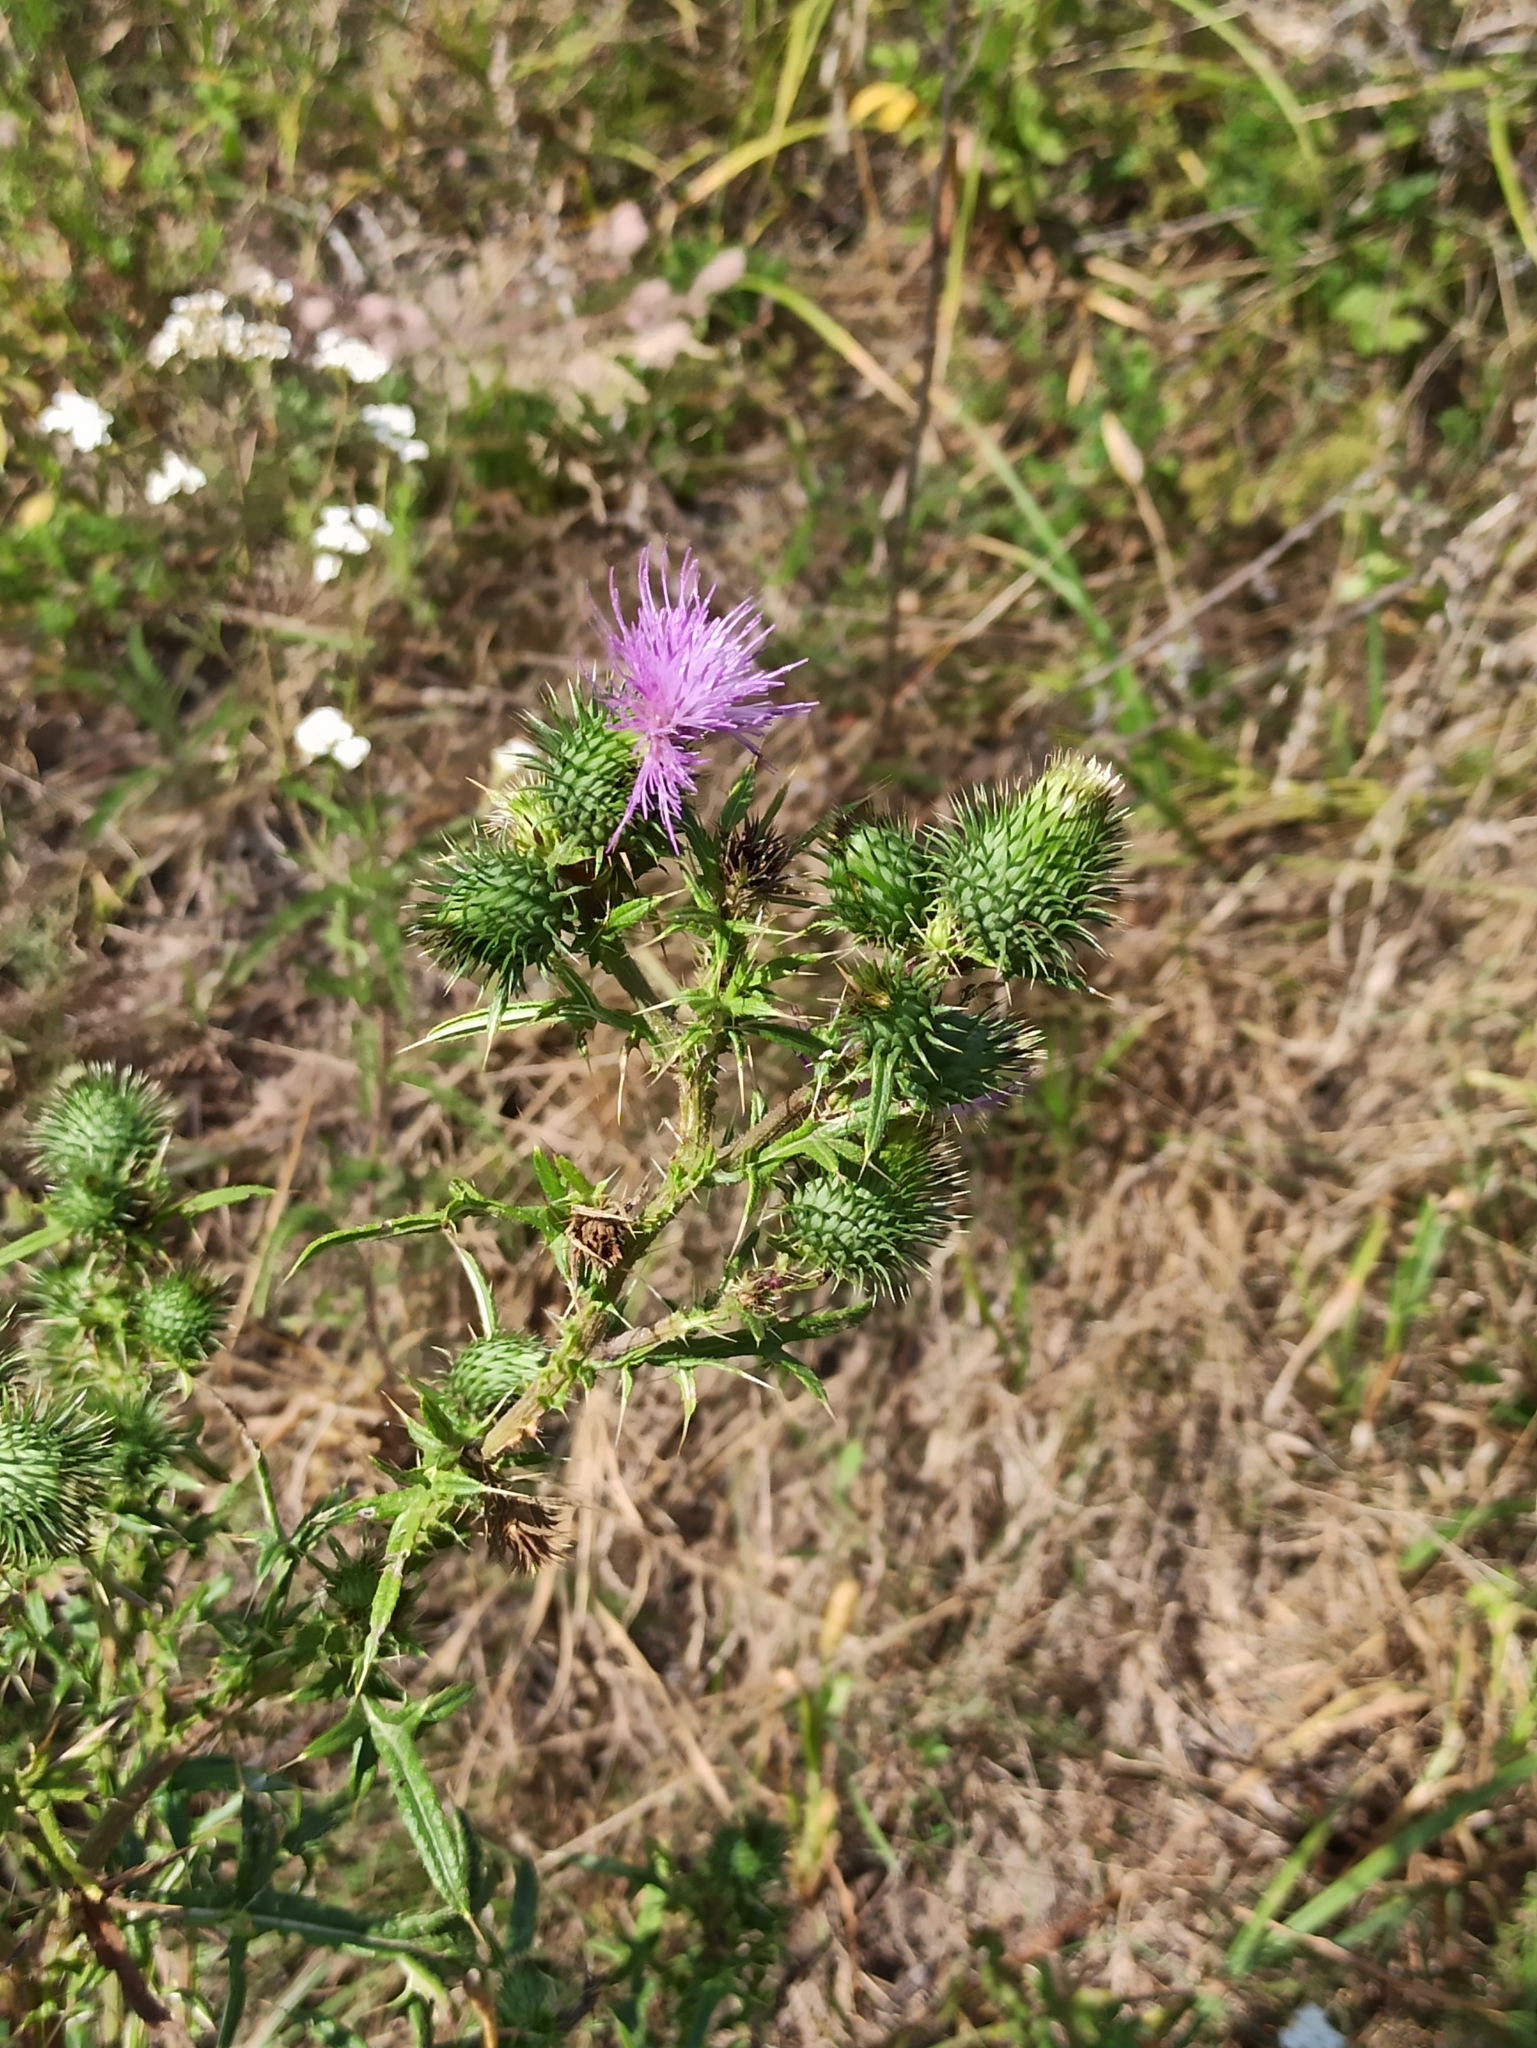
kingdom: Plantae
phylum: Tracheophyta
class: Magnoliopsida
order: Asterales
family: Asteraceae
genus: Cirsium
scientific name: Cirsium vulgare
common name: Bull thistle
